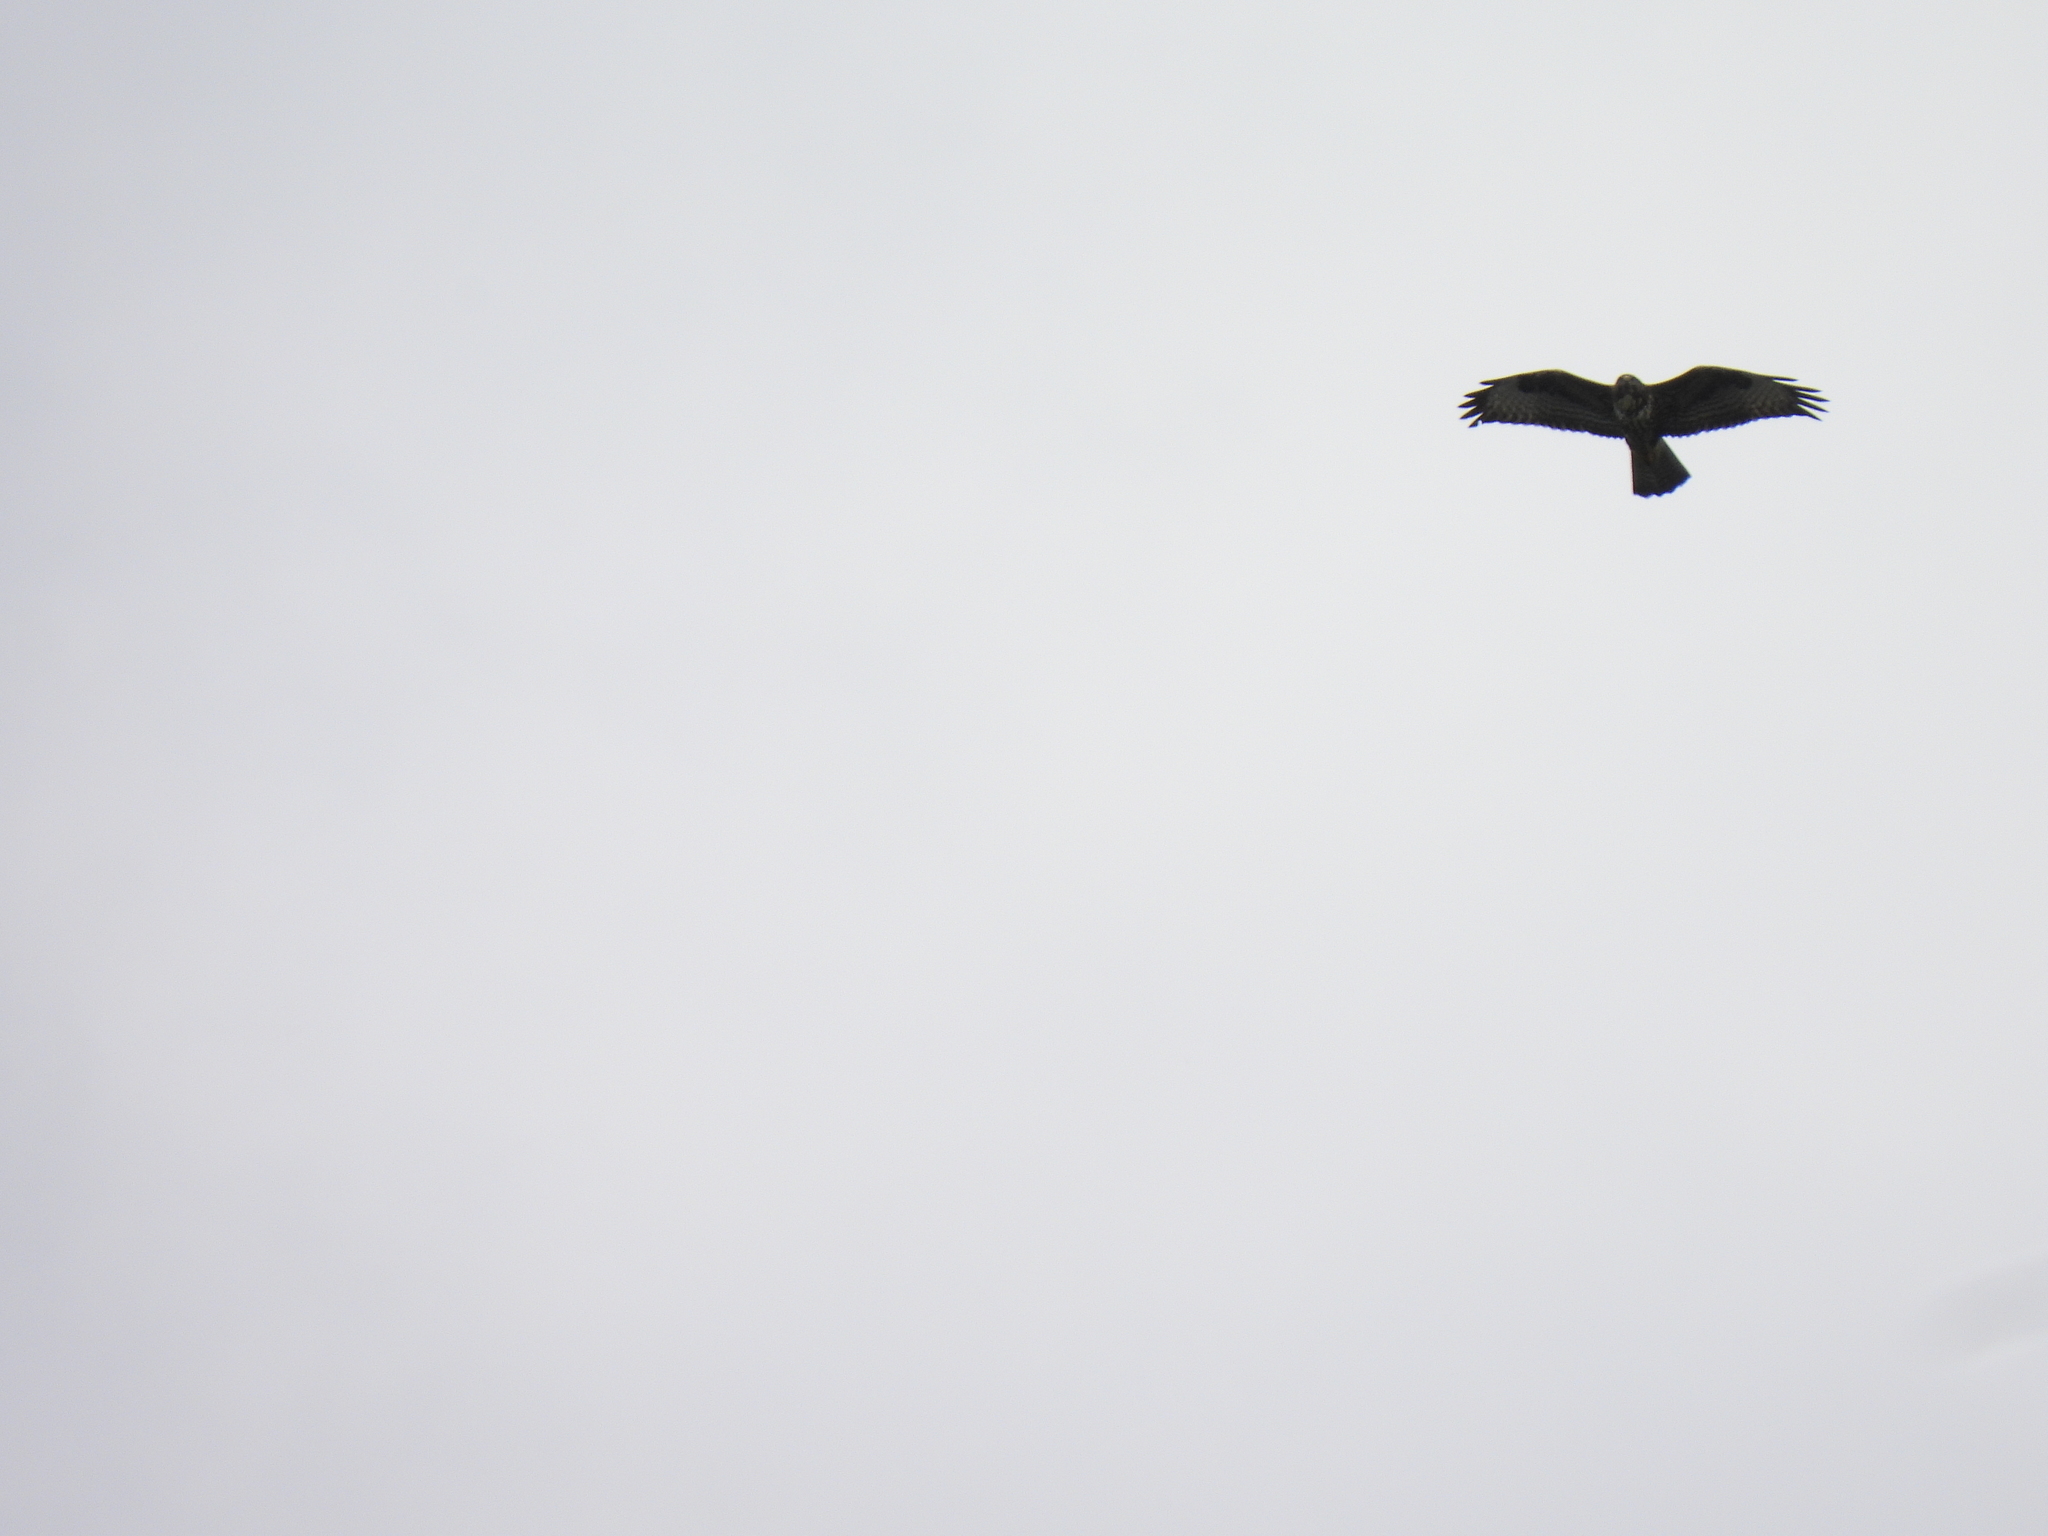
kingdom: Animalia
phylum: Chordata
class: Aves
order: Accipitriformes
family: Accipitridae
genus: Buteo
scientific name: Buteo buteo
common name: Common buzzard
